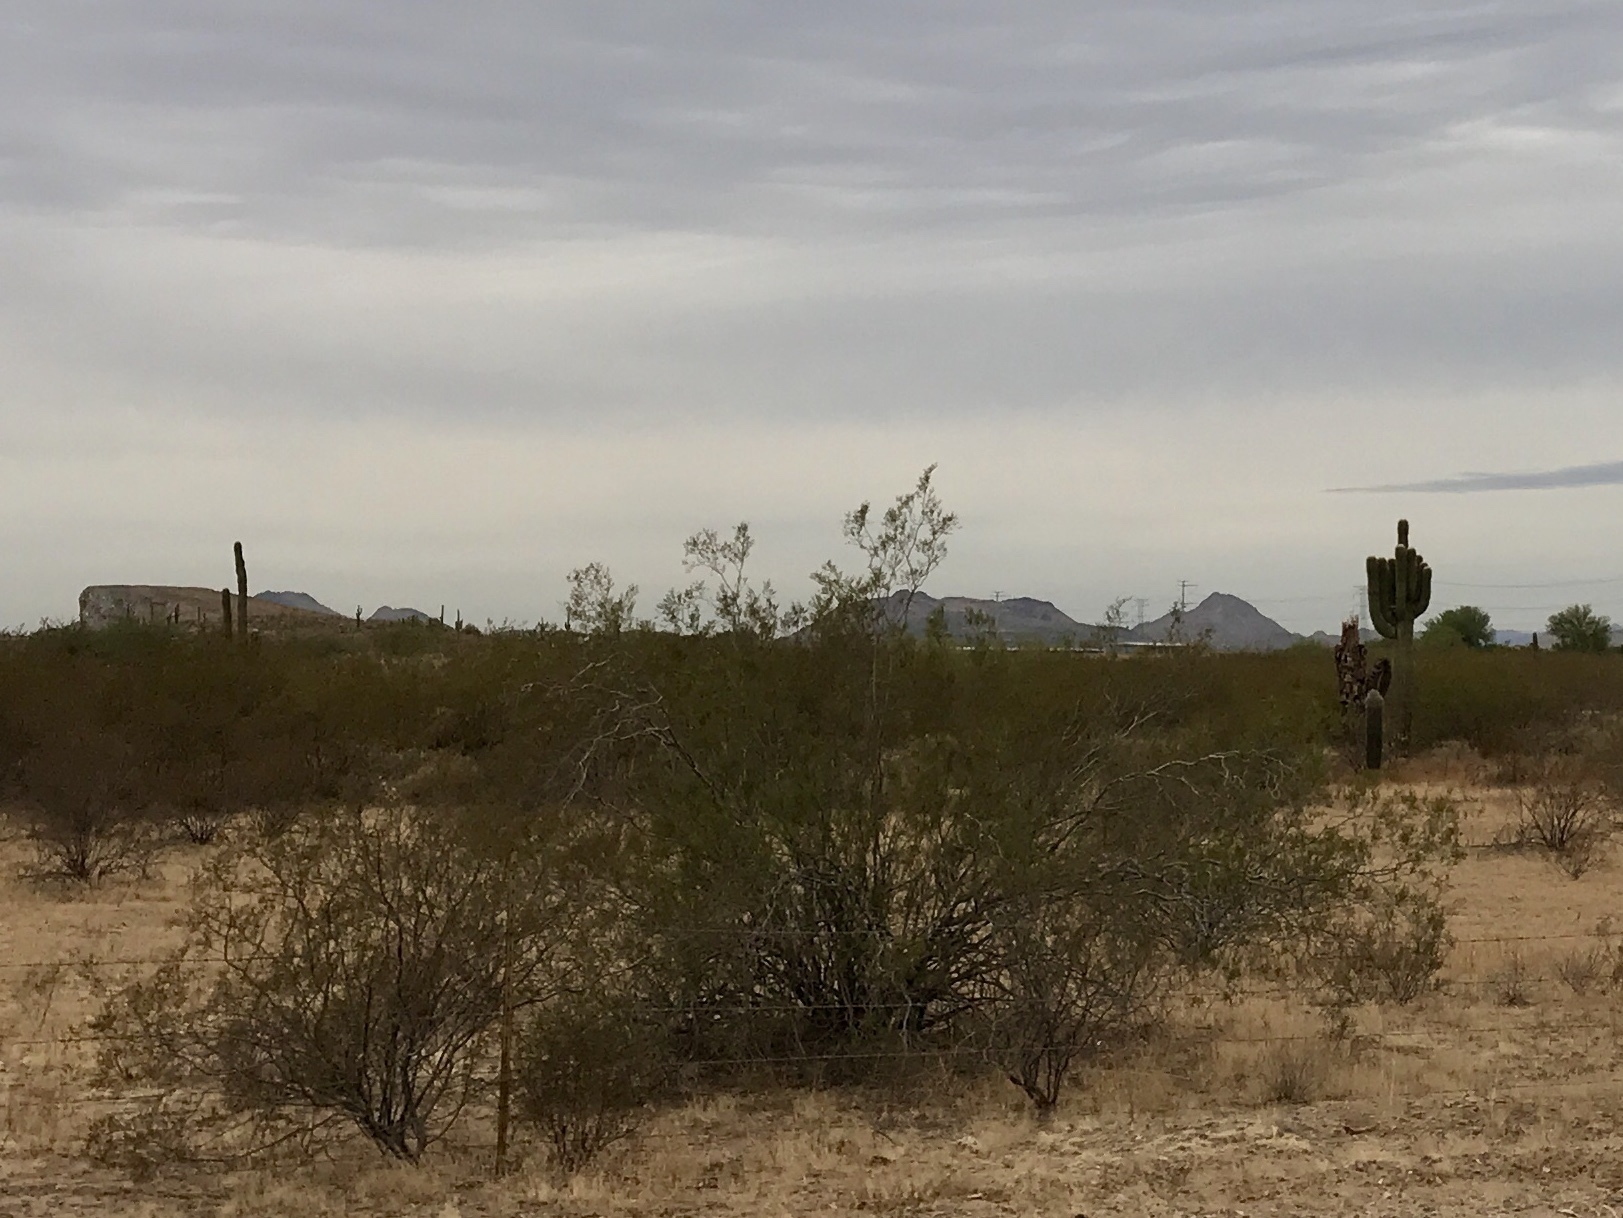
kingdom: Plantae
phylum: Tracheophyta
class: Magnoliopsida
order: Zygophyllales
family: Zygophyllaceae
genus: Larrea
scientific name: Larrea tridentata
